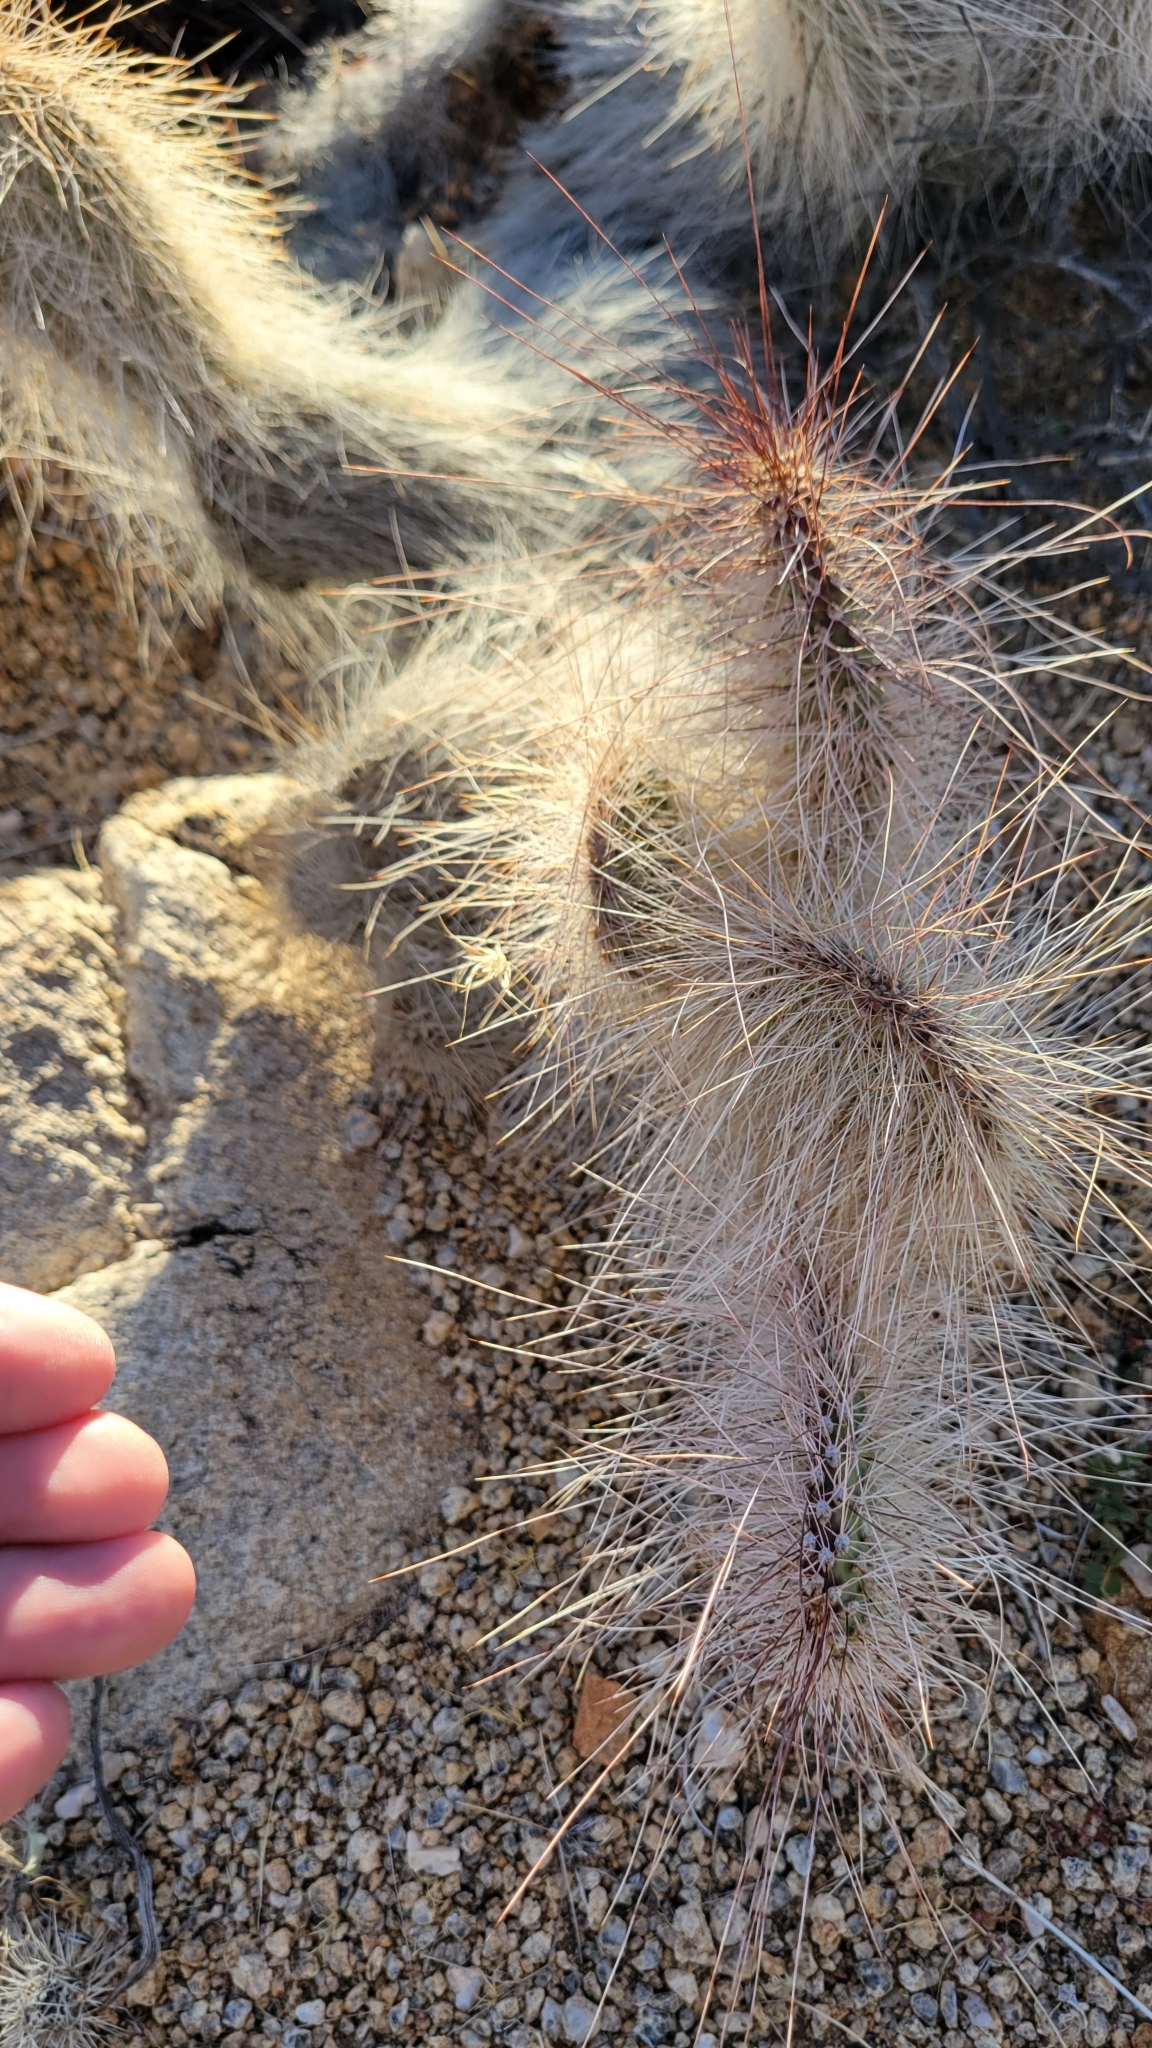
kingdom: Plantae
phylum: Tracheophyta
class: Magnoliopsida
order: Caryophyllales
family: Cactaceae
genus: Opuntia
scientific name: Opuntia polyacantha
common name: Plains prickly-pear
